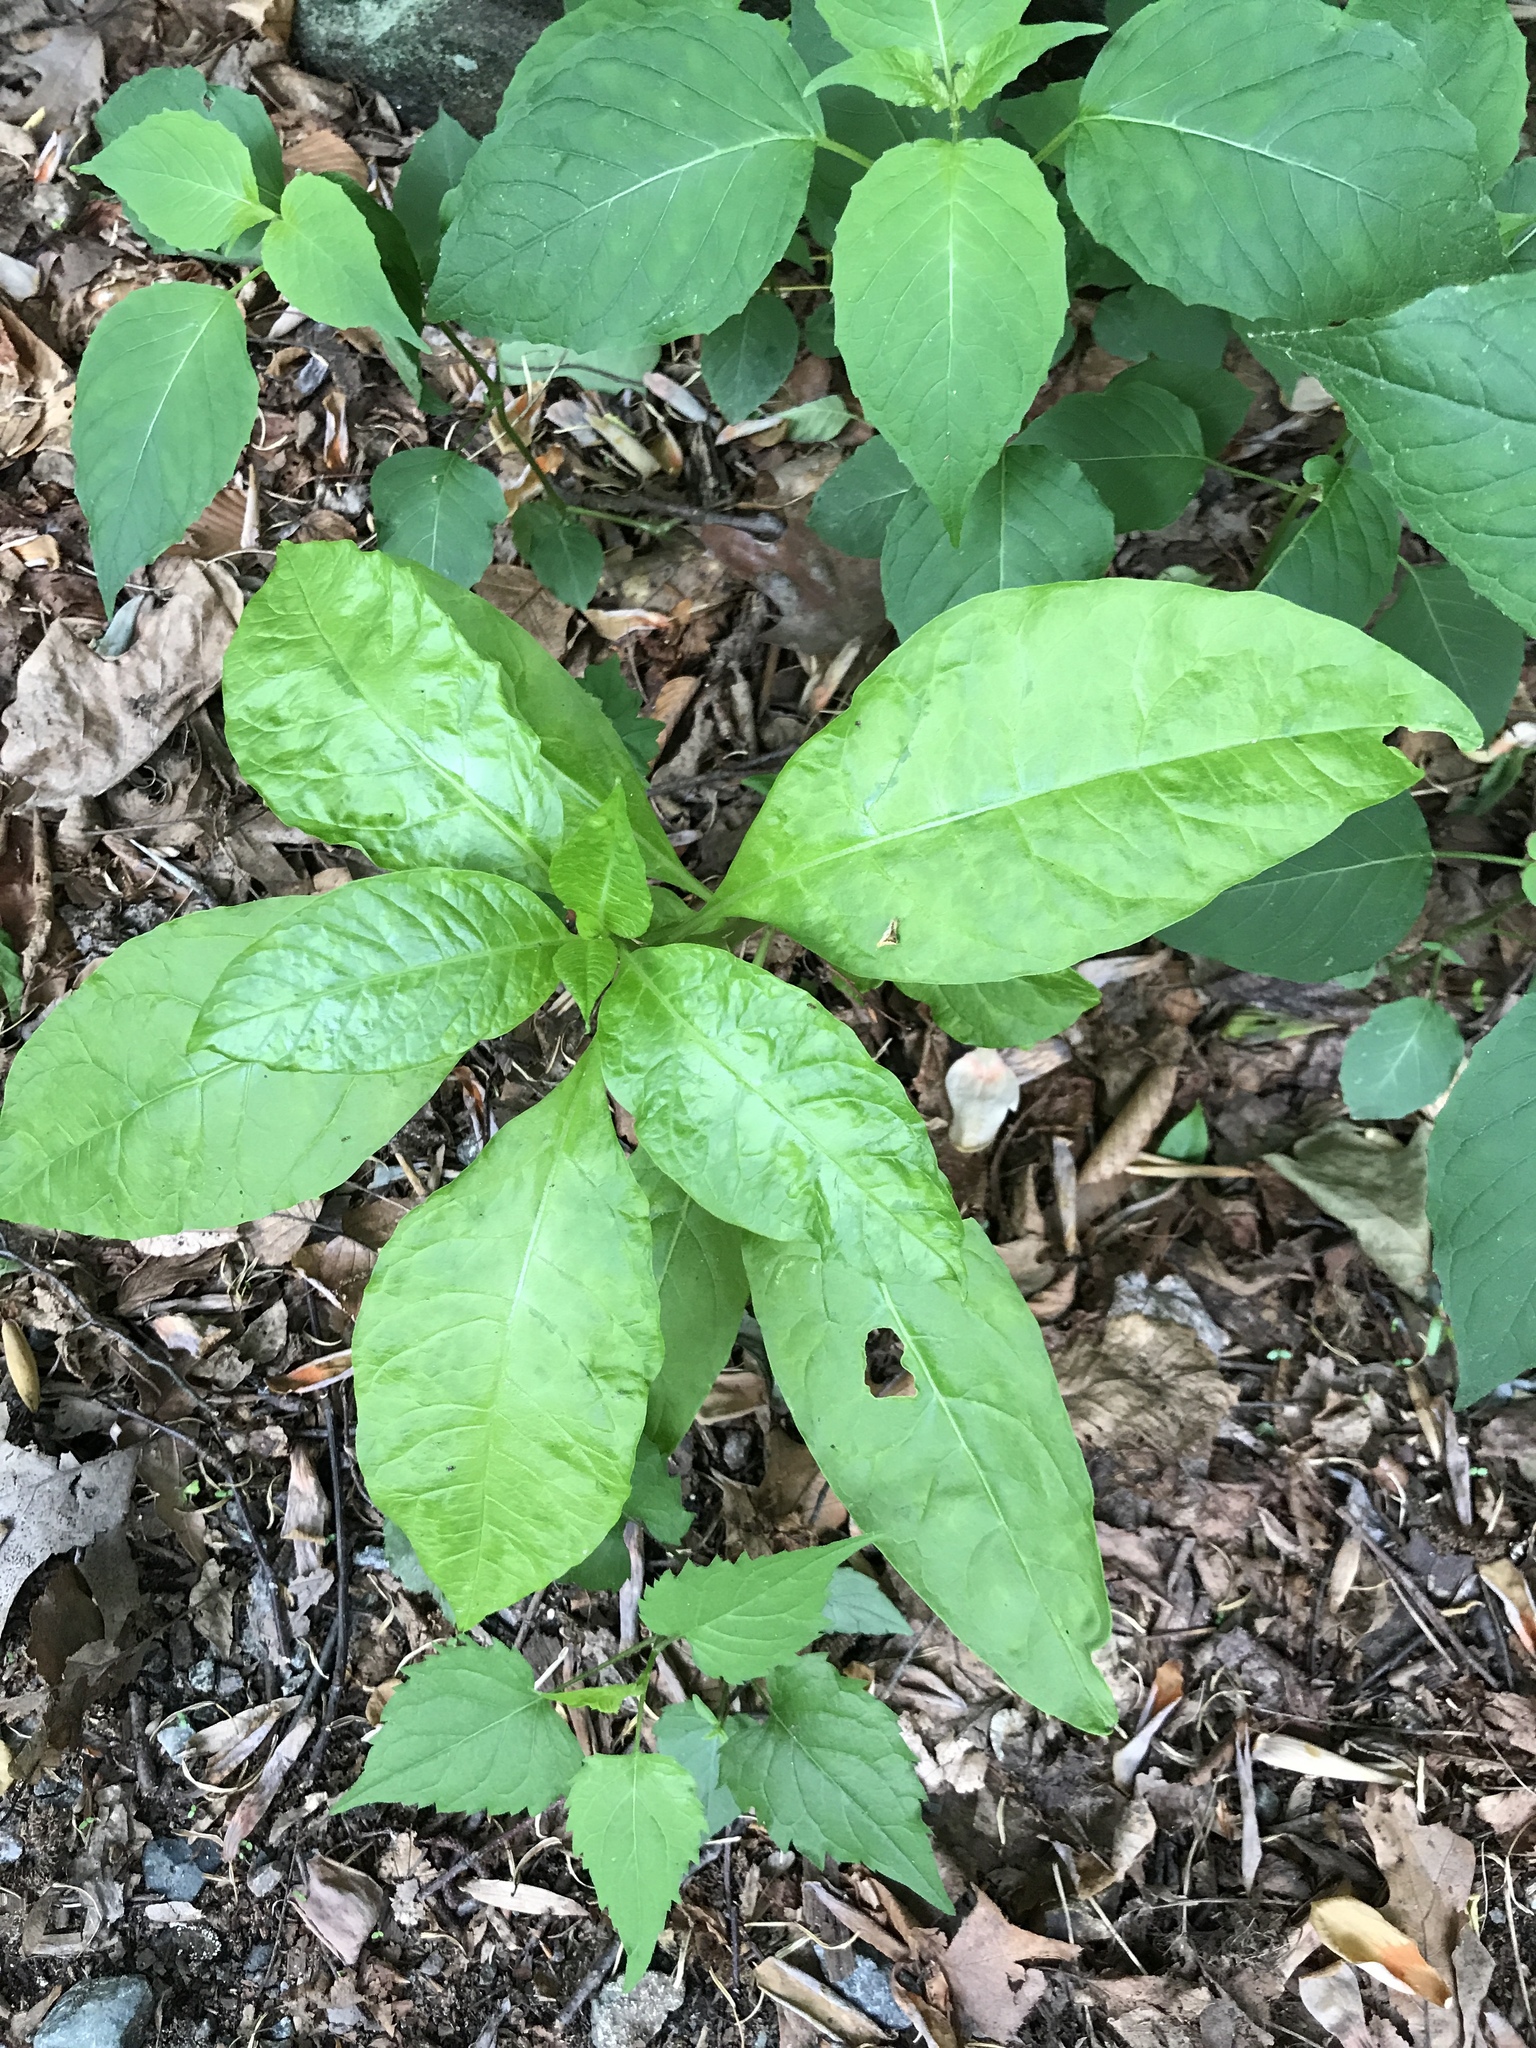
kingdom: Plantae
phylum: Tracheophyta
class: Magnoliopsida
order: Caryophyllales
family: Phytolaccaceae
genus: Phytolacca
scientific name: Phytolacca americana
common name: American pokeweed
